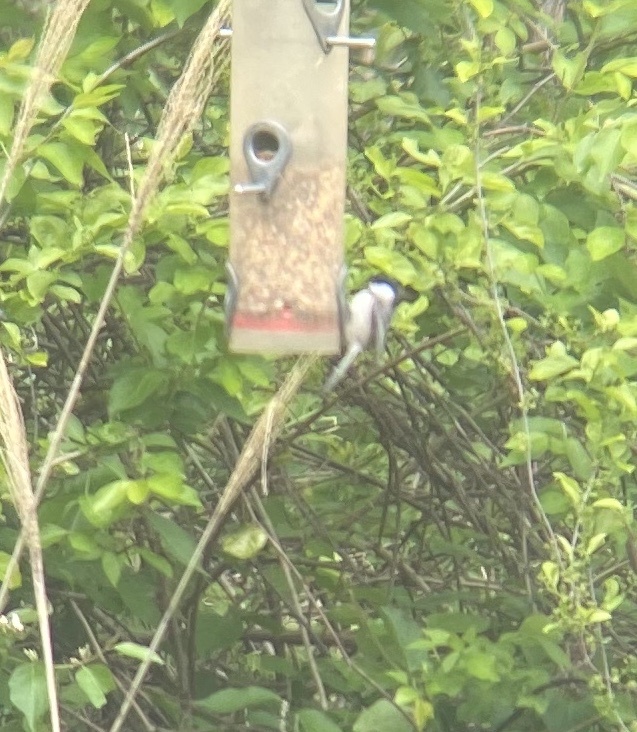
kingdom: Animalia
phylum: Chordata
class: Aves
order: Passeriformes
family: Paridae
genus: Poecile
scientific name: Poecile carolinensis
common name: Carolina chickadee
